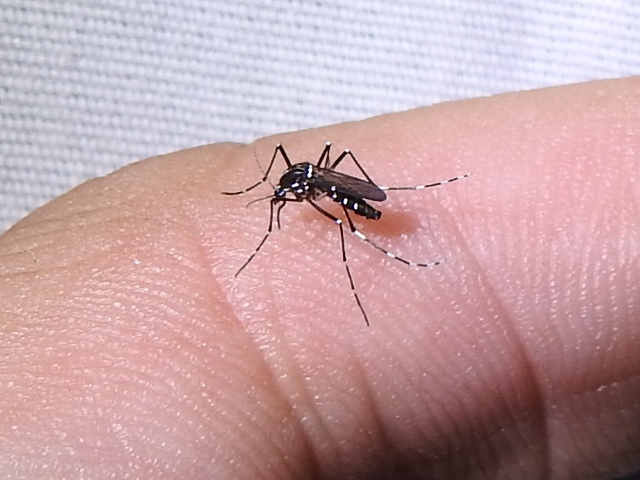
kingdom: Animalia
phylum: Arthropoda
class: Insecta
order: Diptera
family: Culicidae
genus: Aedes
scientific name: Aedes albopictus
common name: Tiger mosquito
